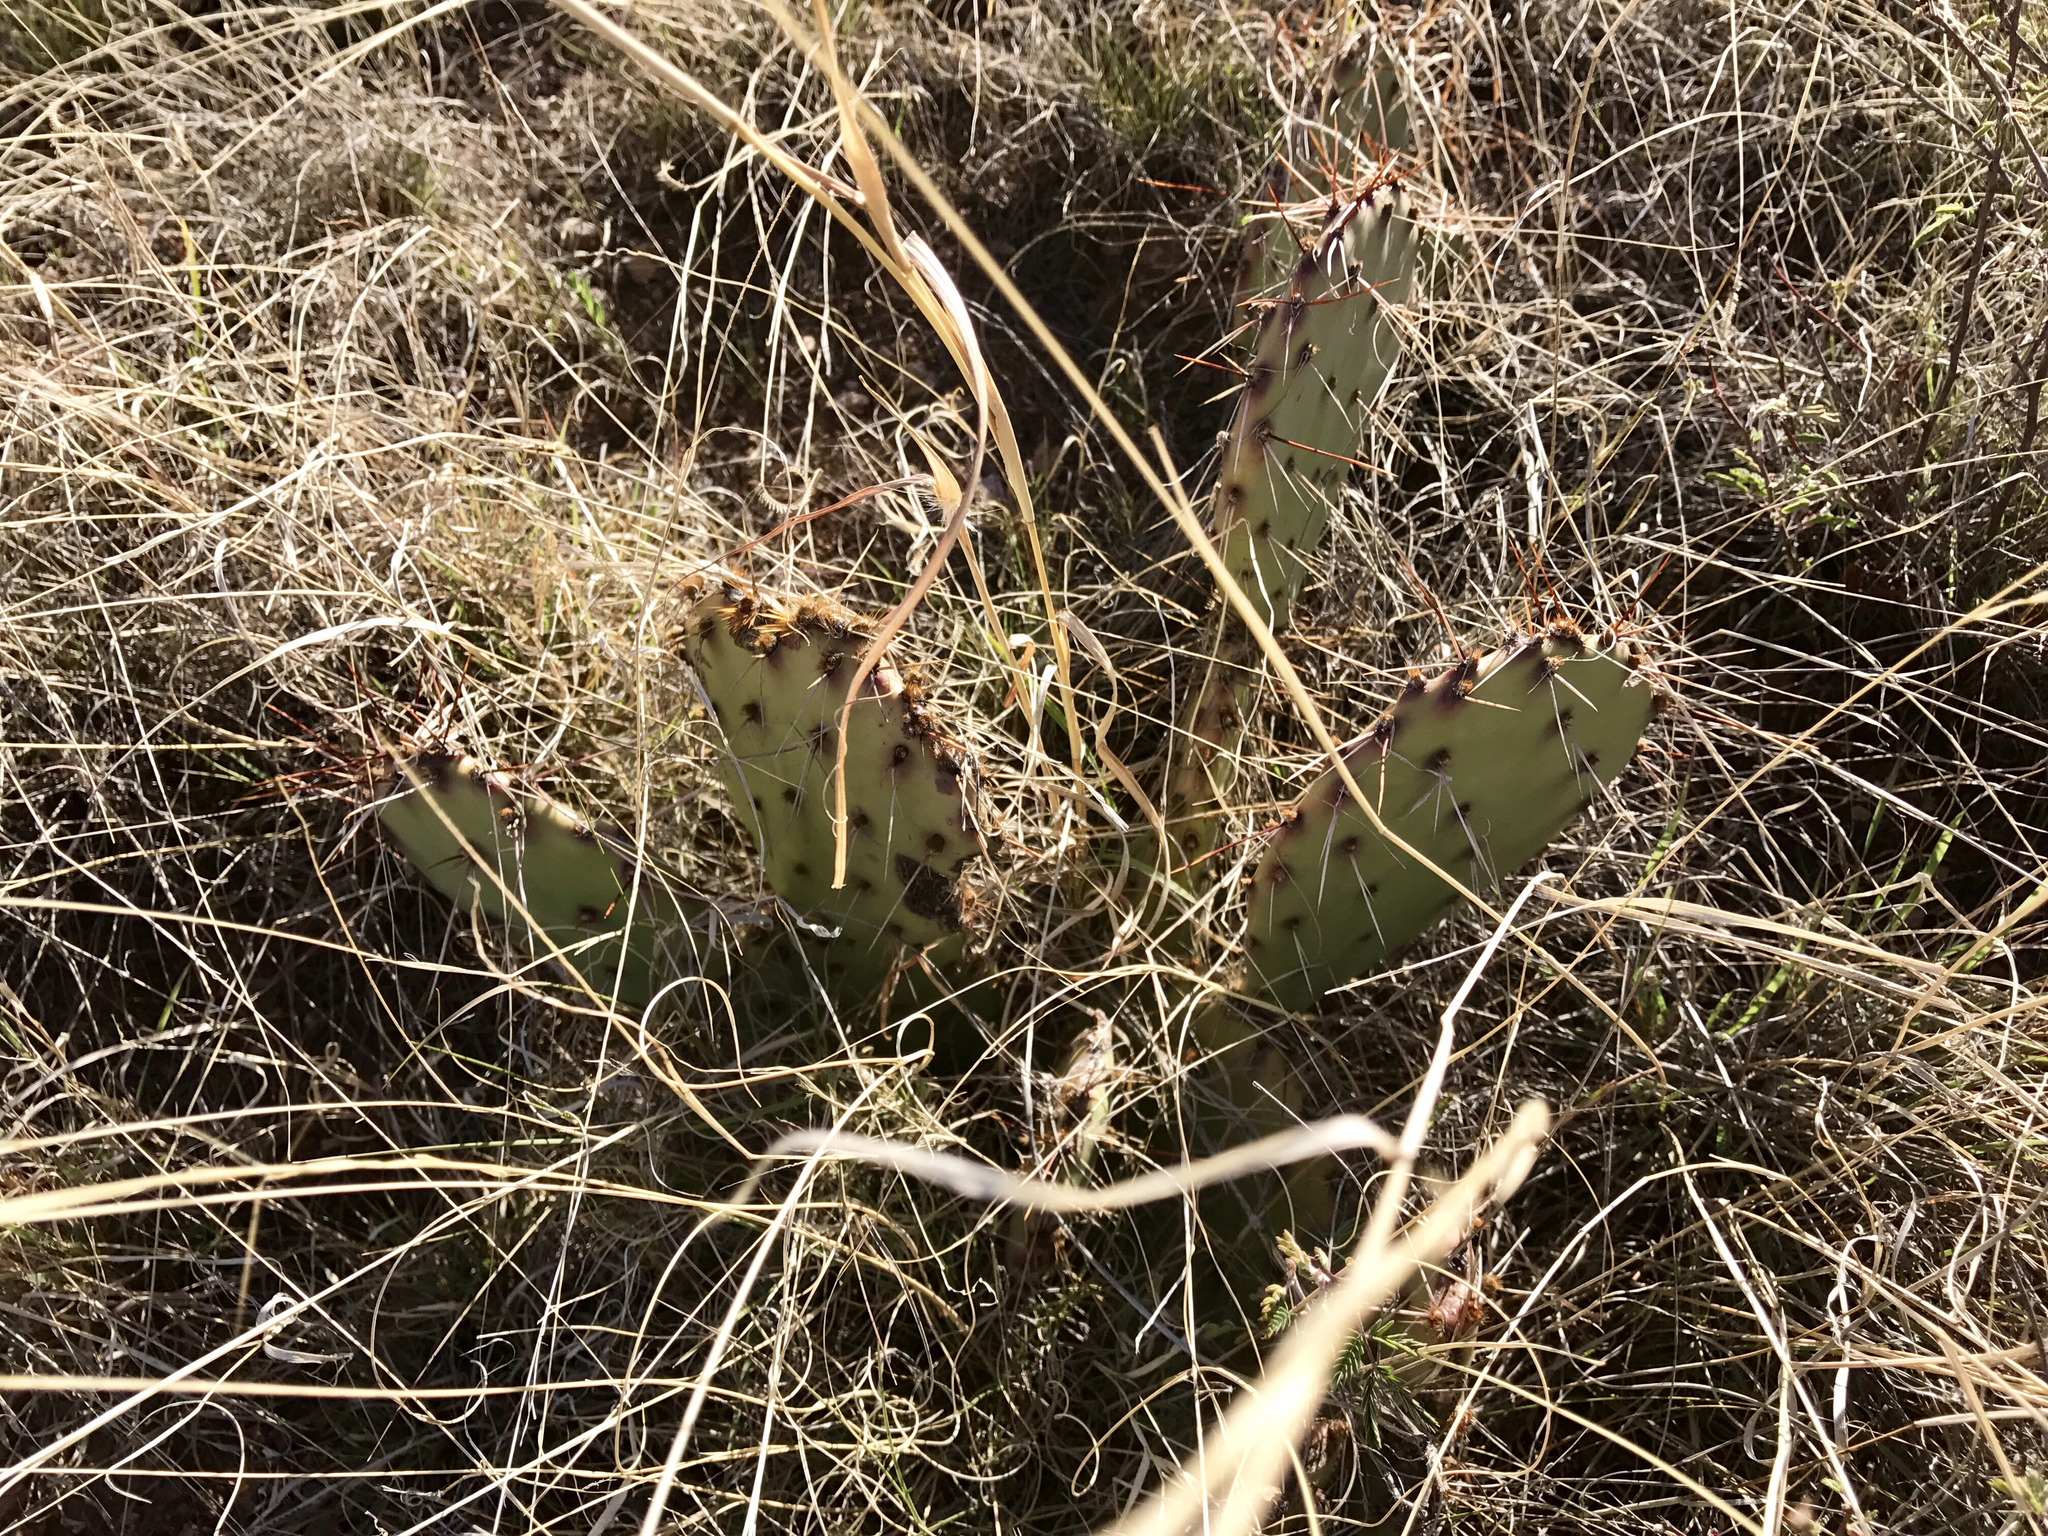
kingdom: Plantae
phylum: Tracheophyta
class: Magnoliopsida
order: Caryophyllales
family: Cactaceae
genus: Opuntia
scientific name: Opuntia phaeacantha
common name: New mexico prickly-pear
